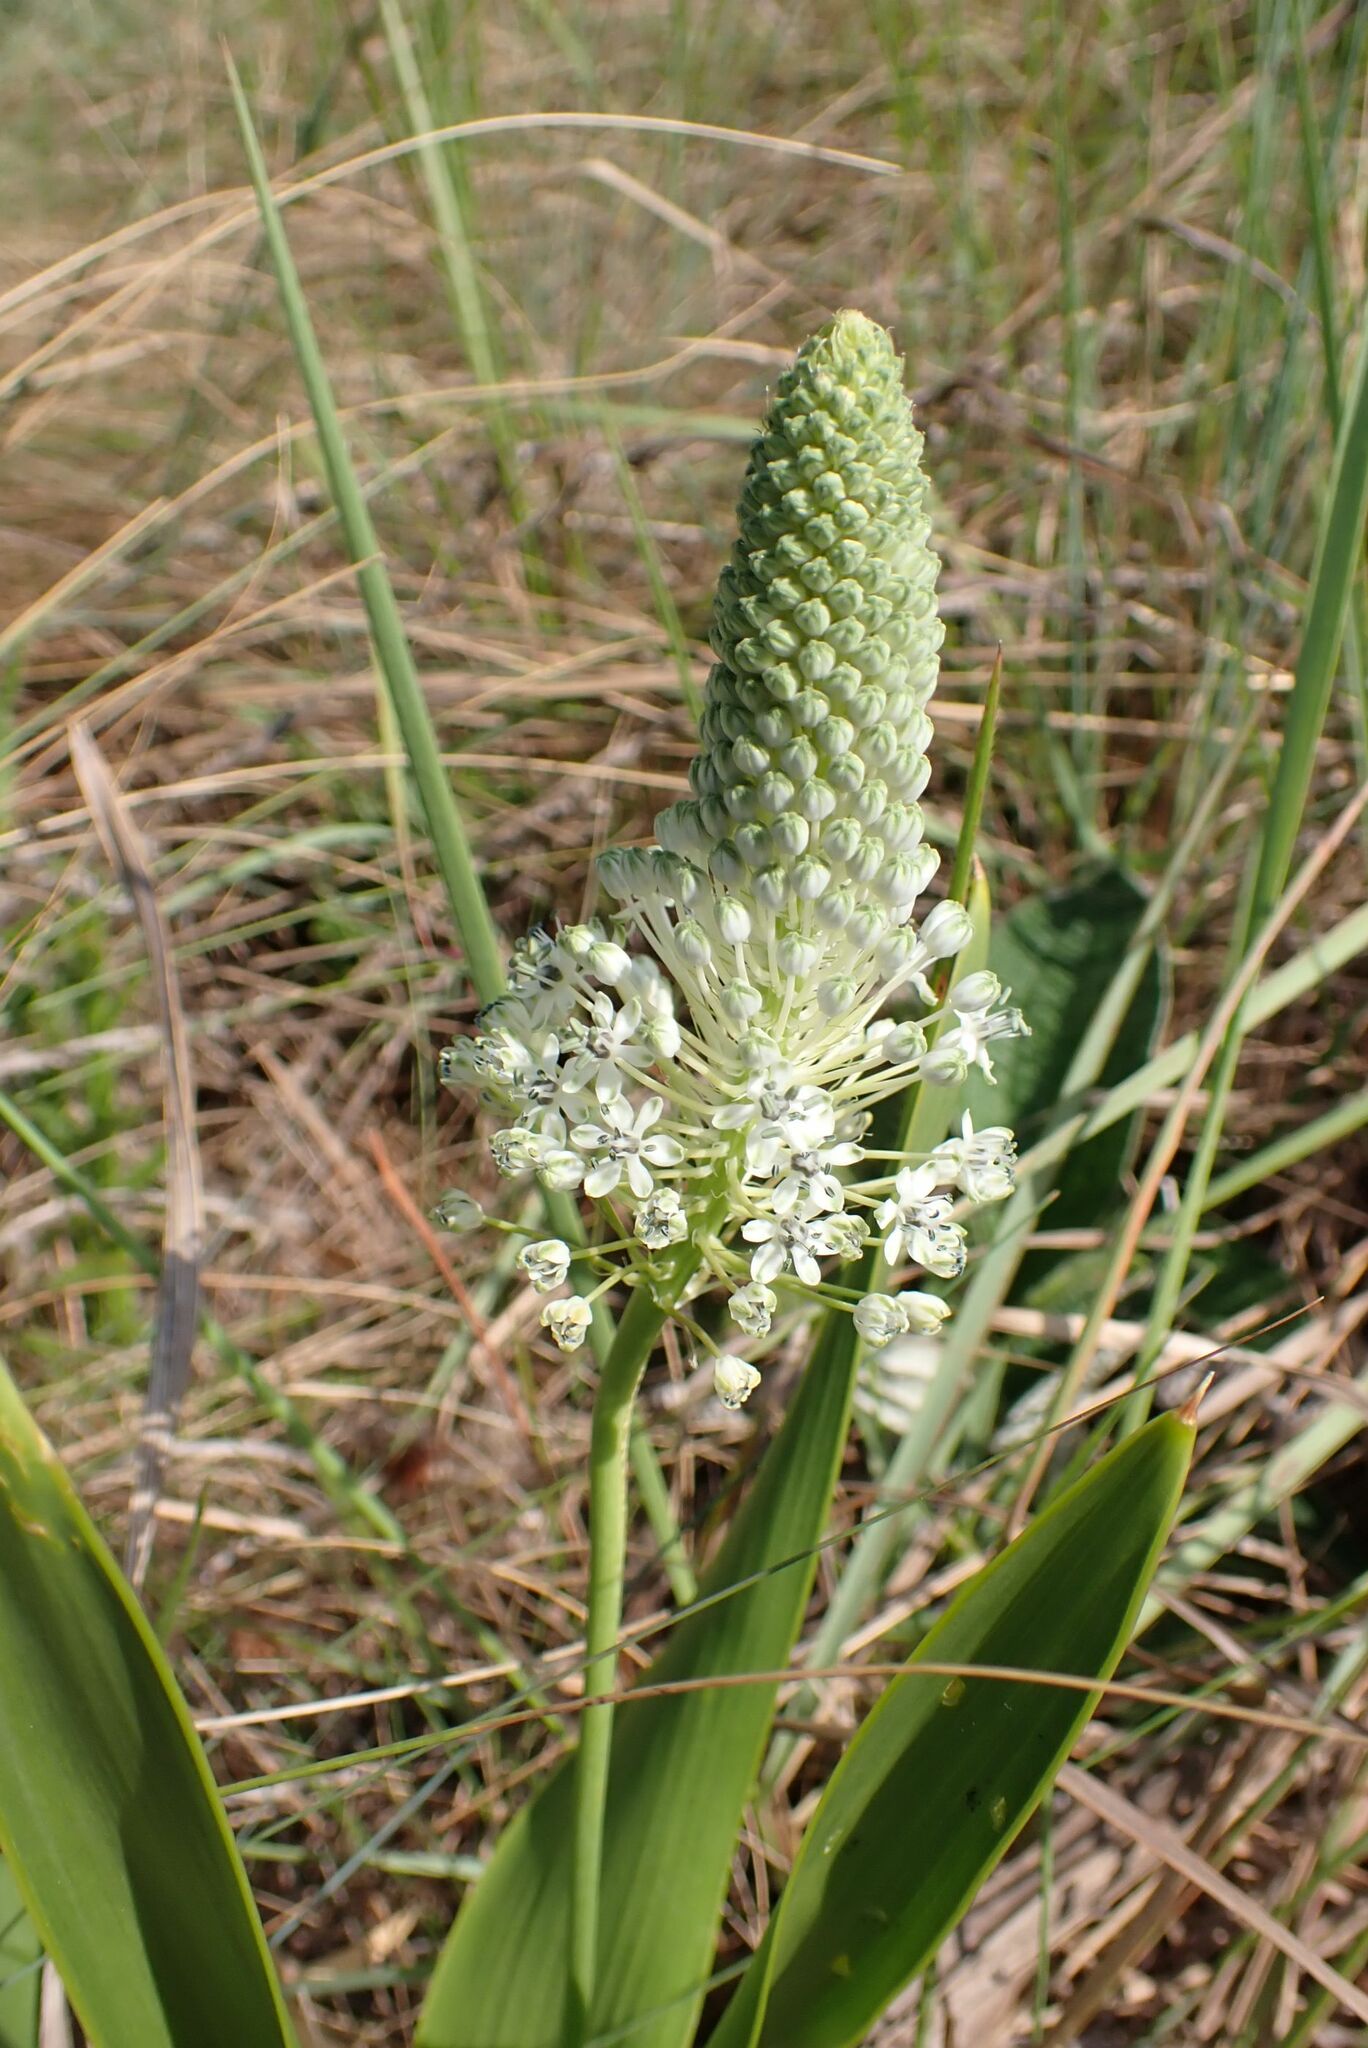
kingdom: Plantae
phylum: Tracheophyta
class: Liliopsida
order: Asparagales
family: Asparagaceae
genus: Schizocarphus
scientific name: Schizocarphus nervosus
